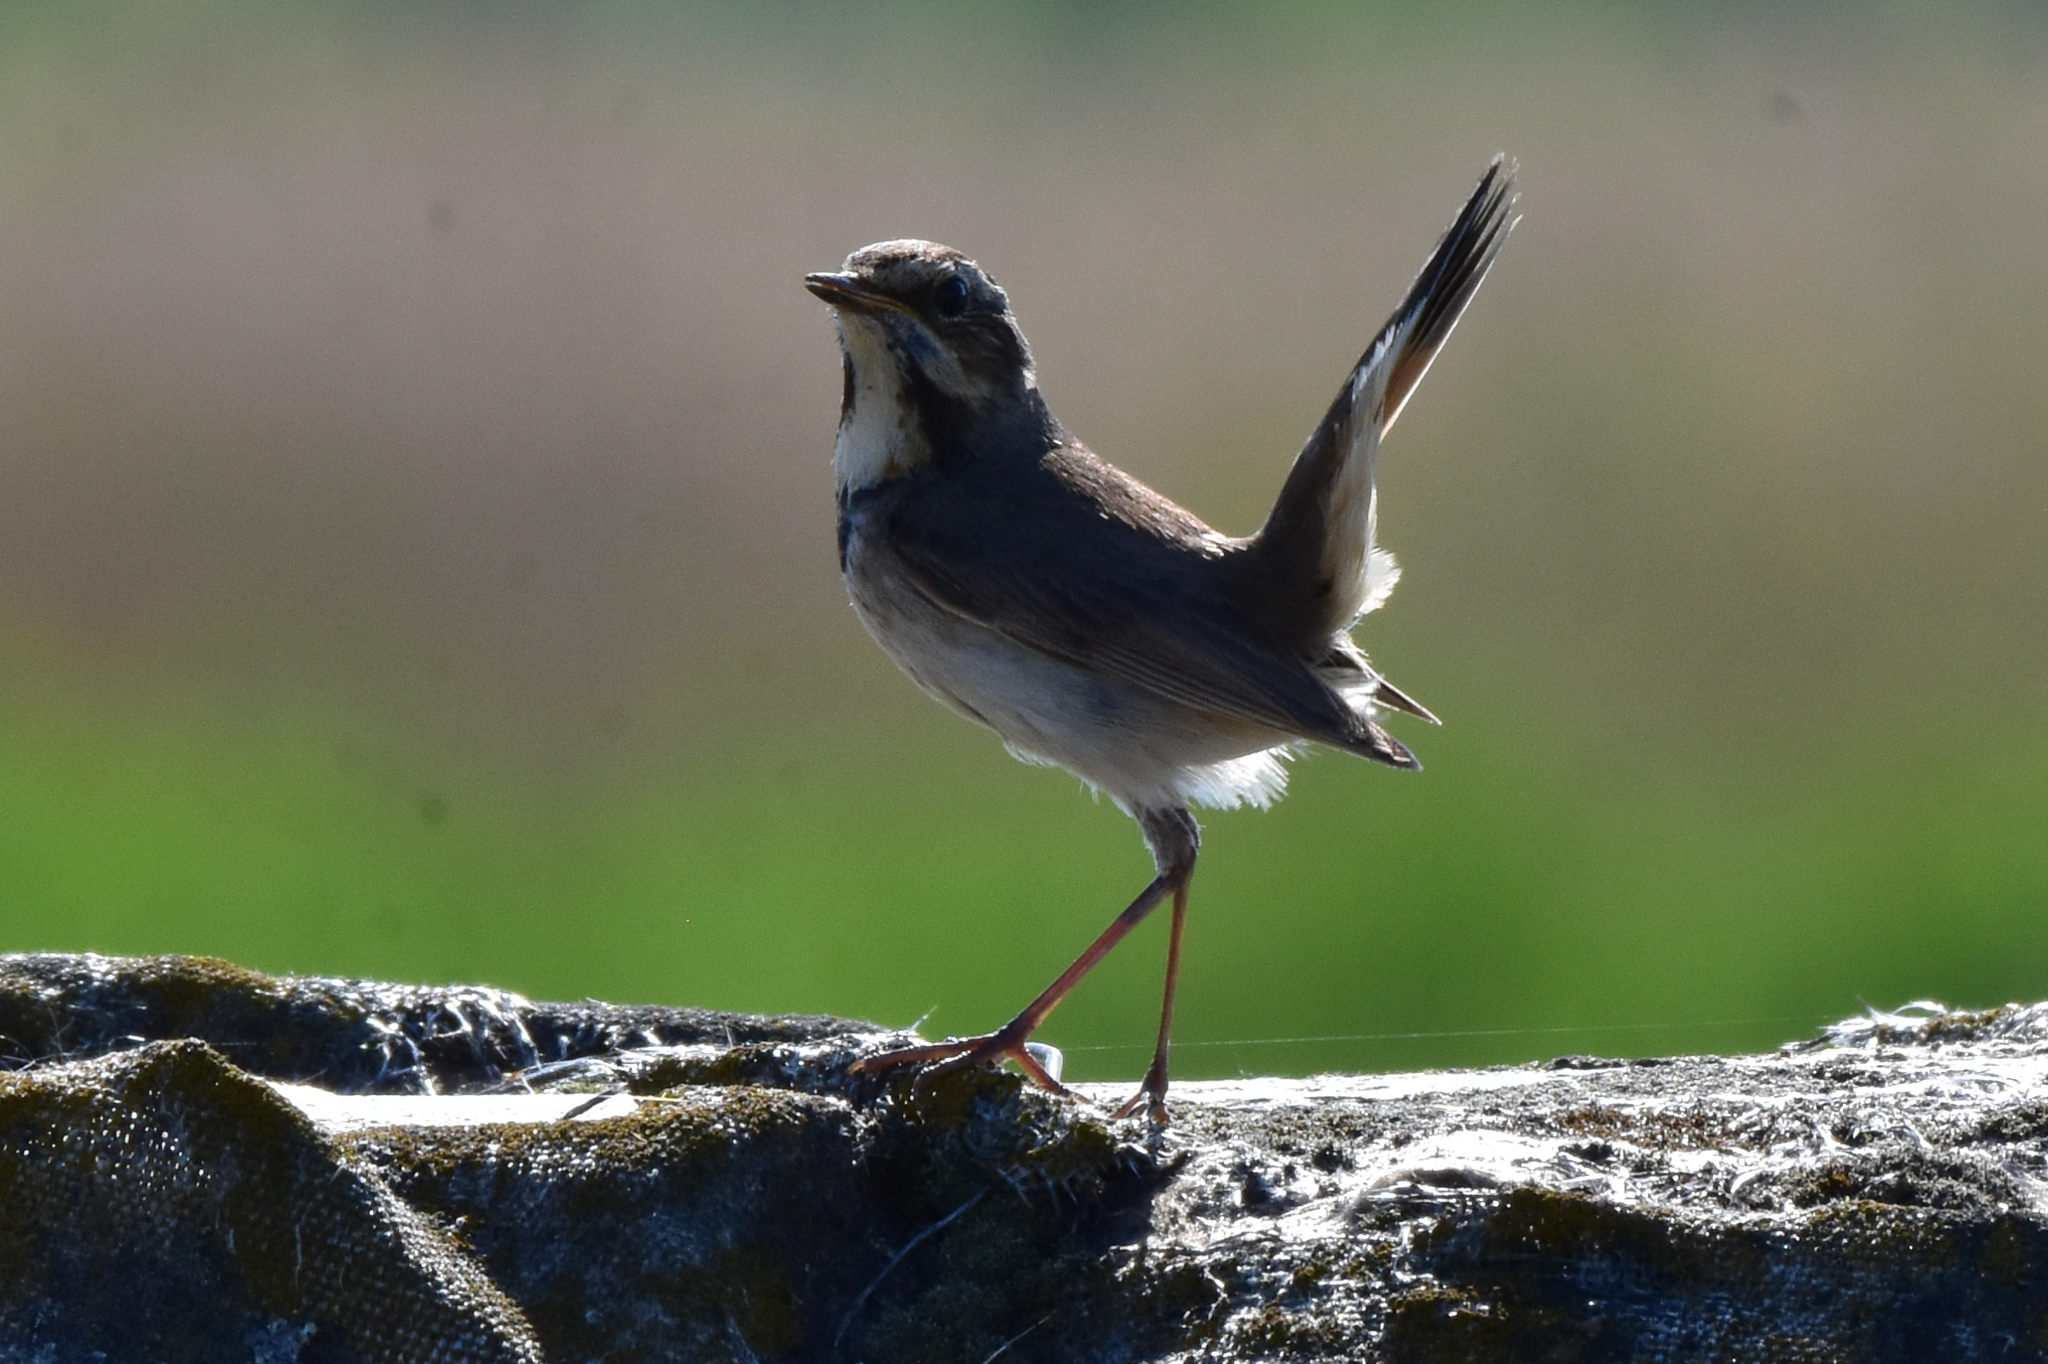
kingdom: Animalia
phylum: Chordata
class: Aves
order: Passeriformes
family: Muscicapidae
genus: Luscinia
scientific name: Luscinia svecica
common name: Bluethroat
